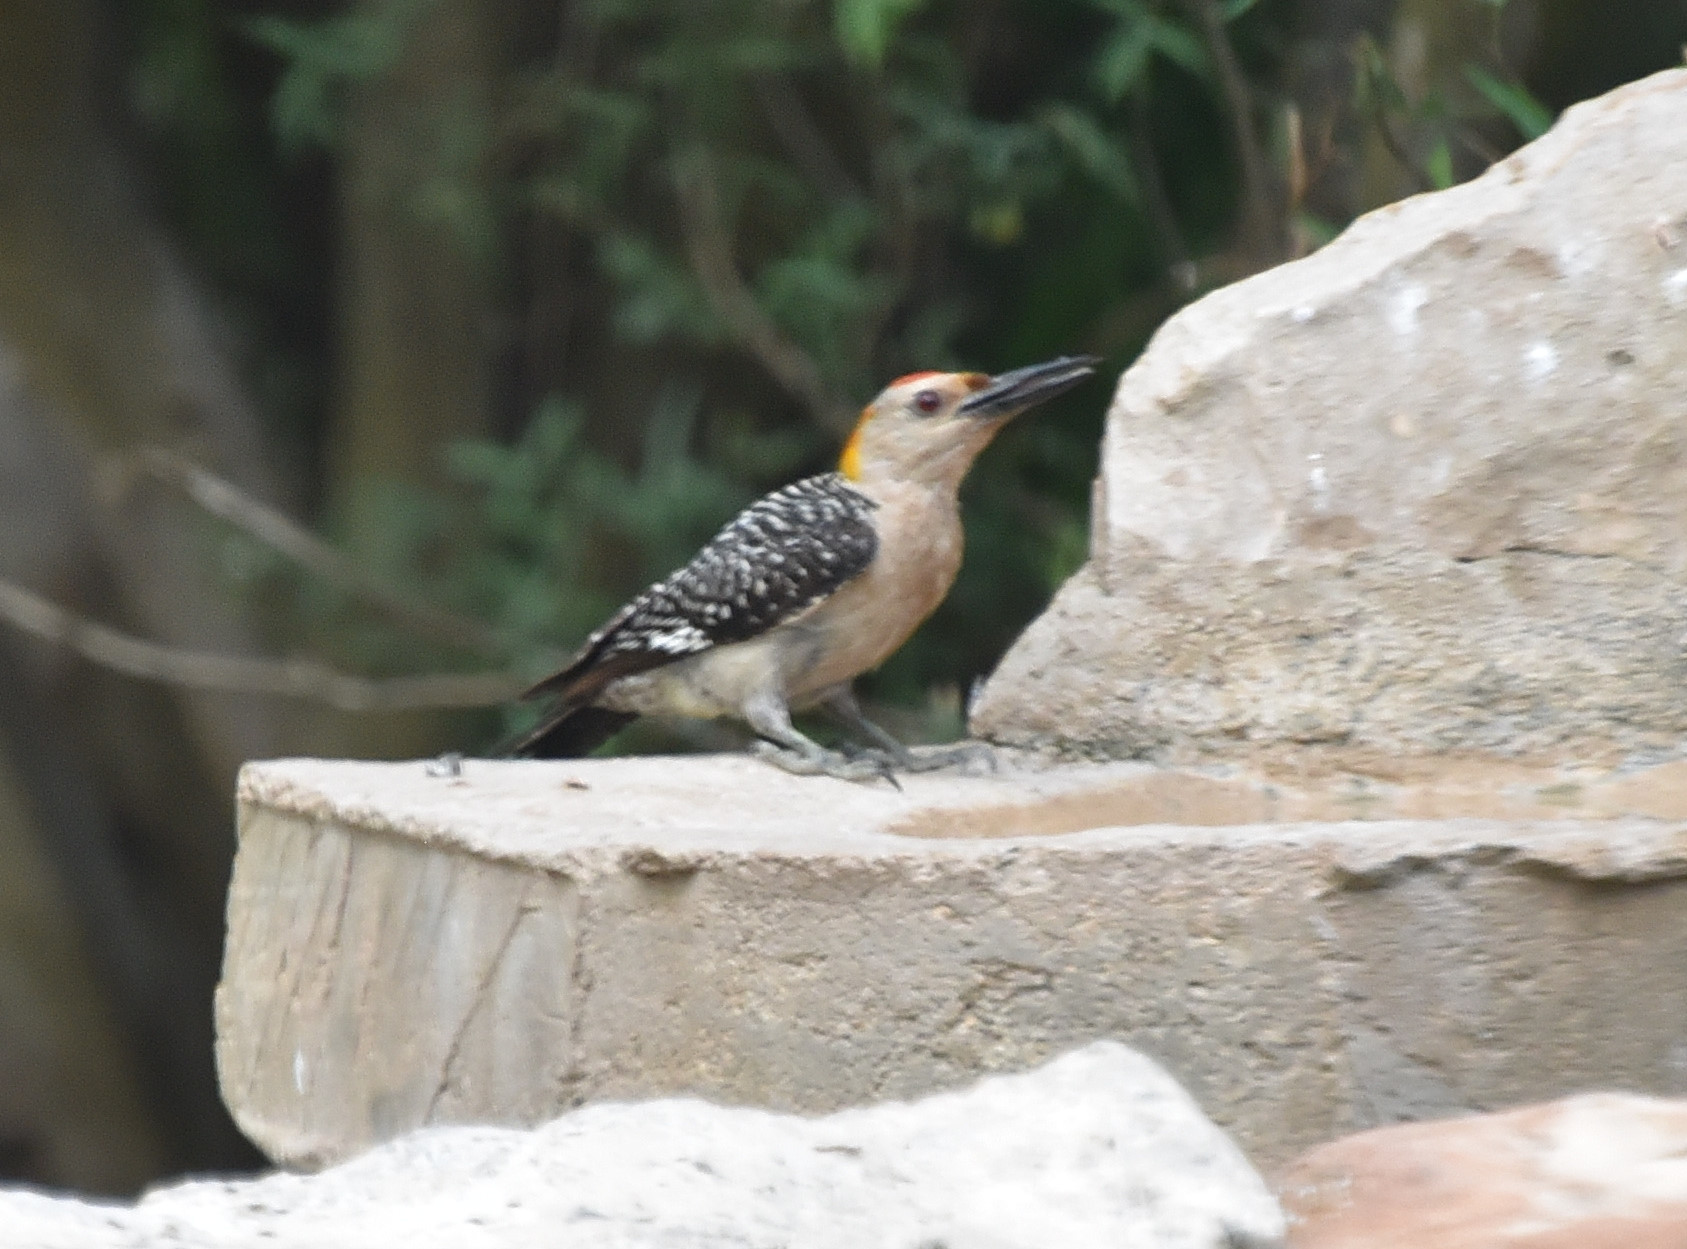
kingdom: Animalia
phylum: Chordata
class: Aves
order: Piciformes
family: Picidae
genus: Melanerpes
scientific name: Melanerpes aurifrons
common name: Golden-fronted woodpecker
